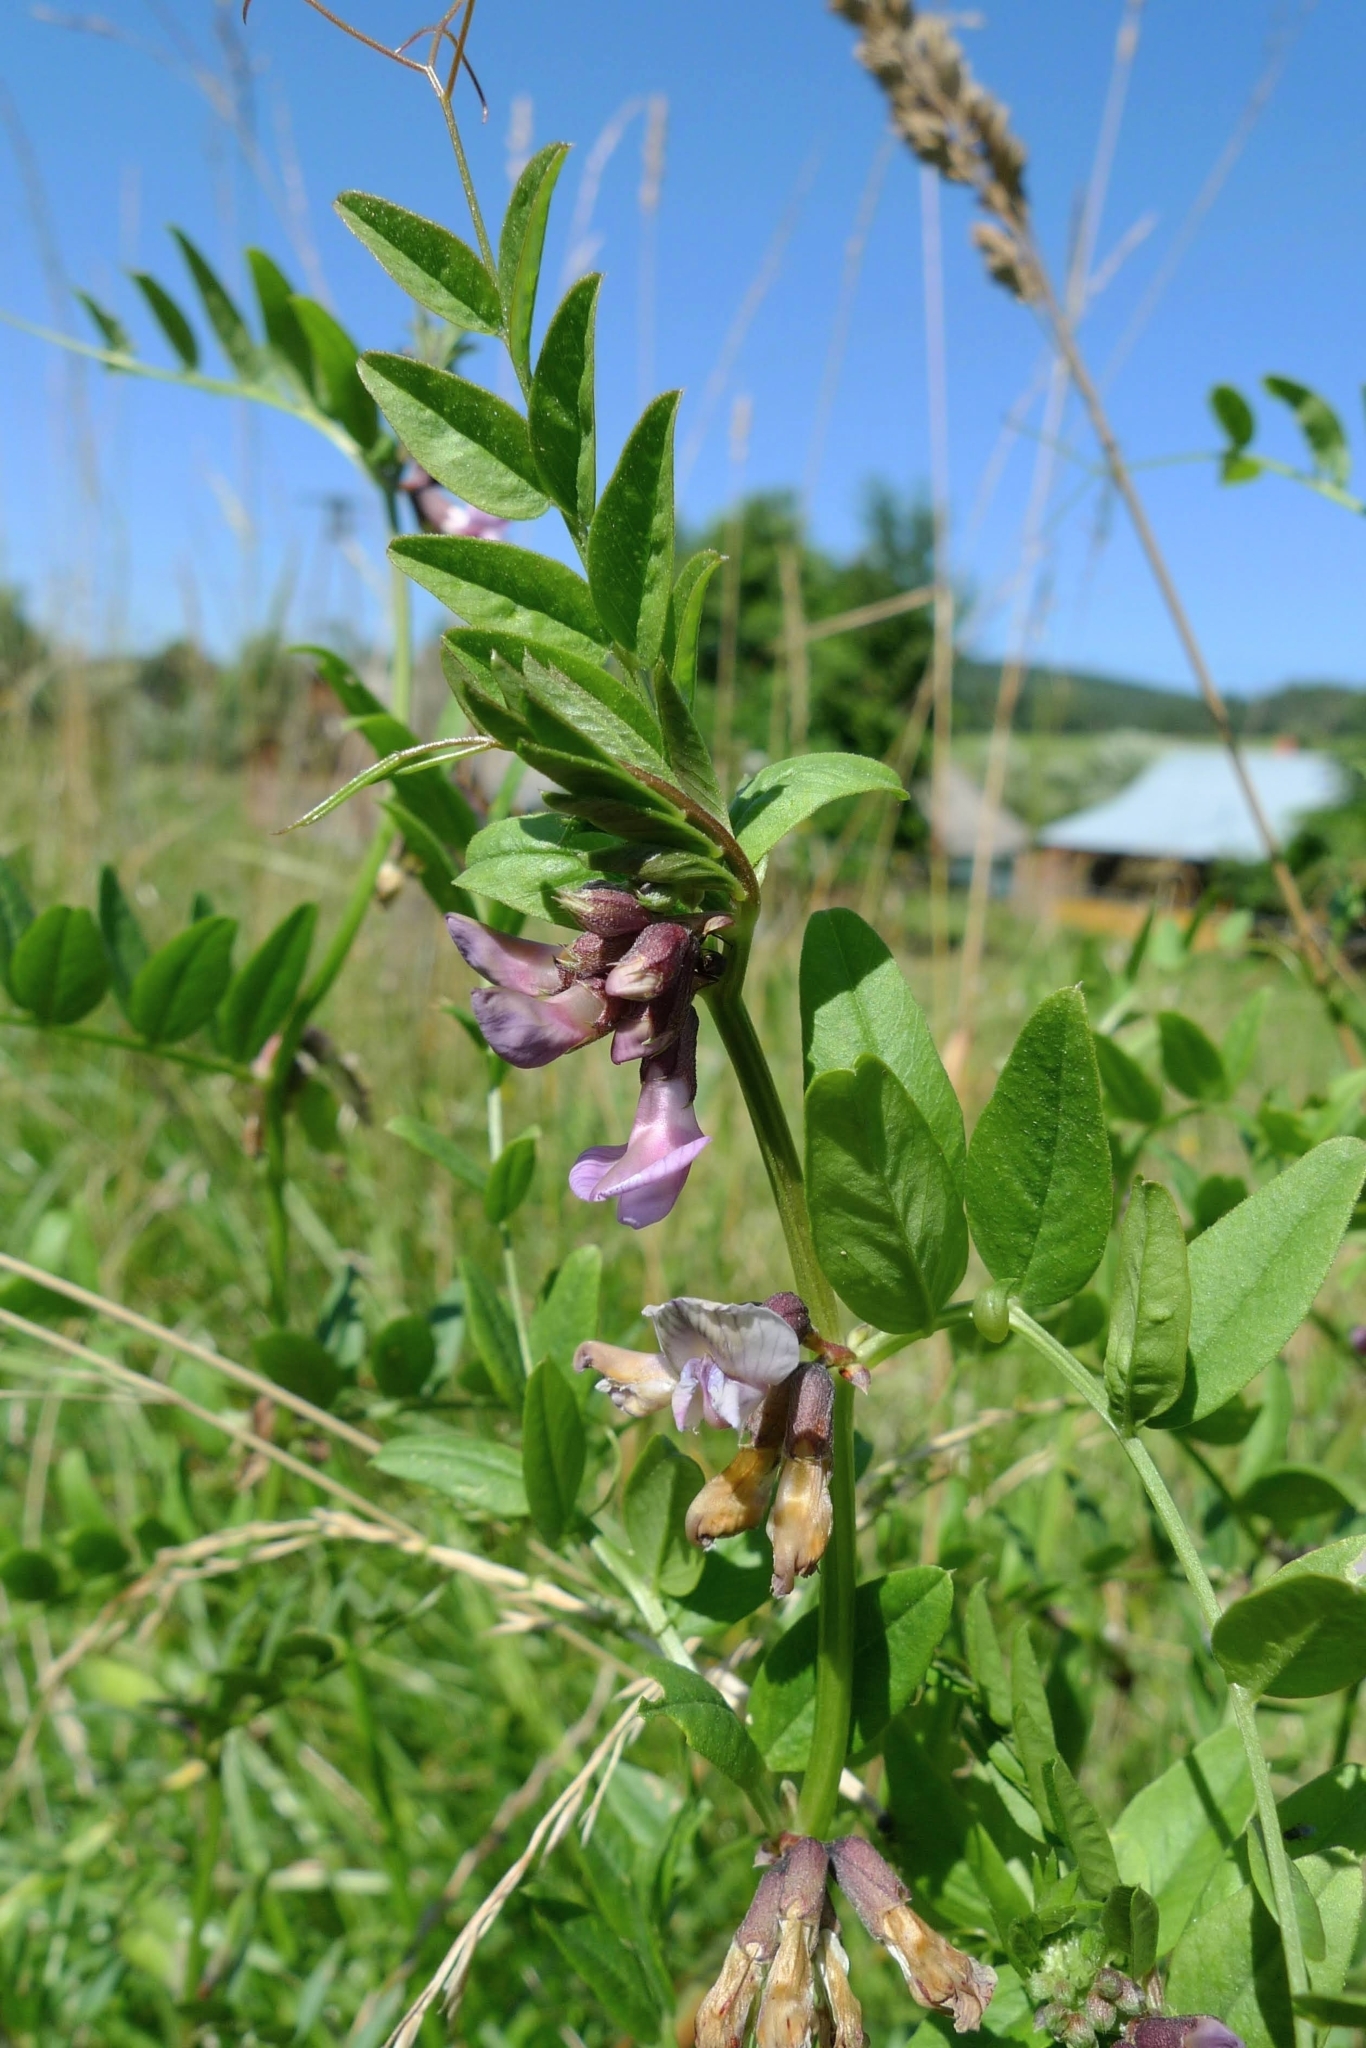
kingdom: Plantae
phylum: Tracheophyta
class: Magnoliopsida
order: Fabales
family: Fabaceae
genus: Vicia
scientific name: Vicia sepium
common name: Bush vetch
